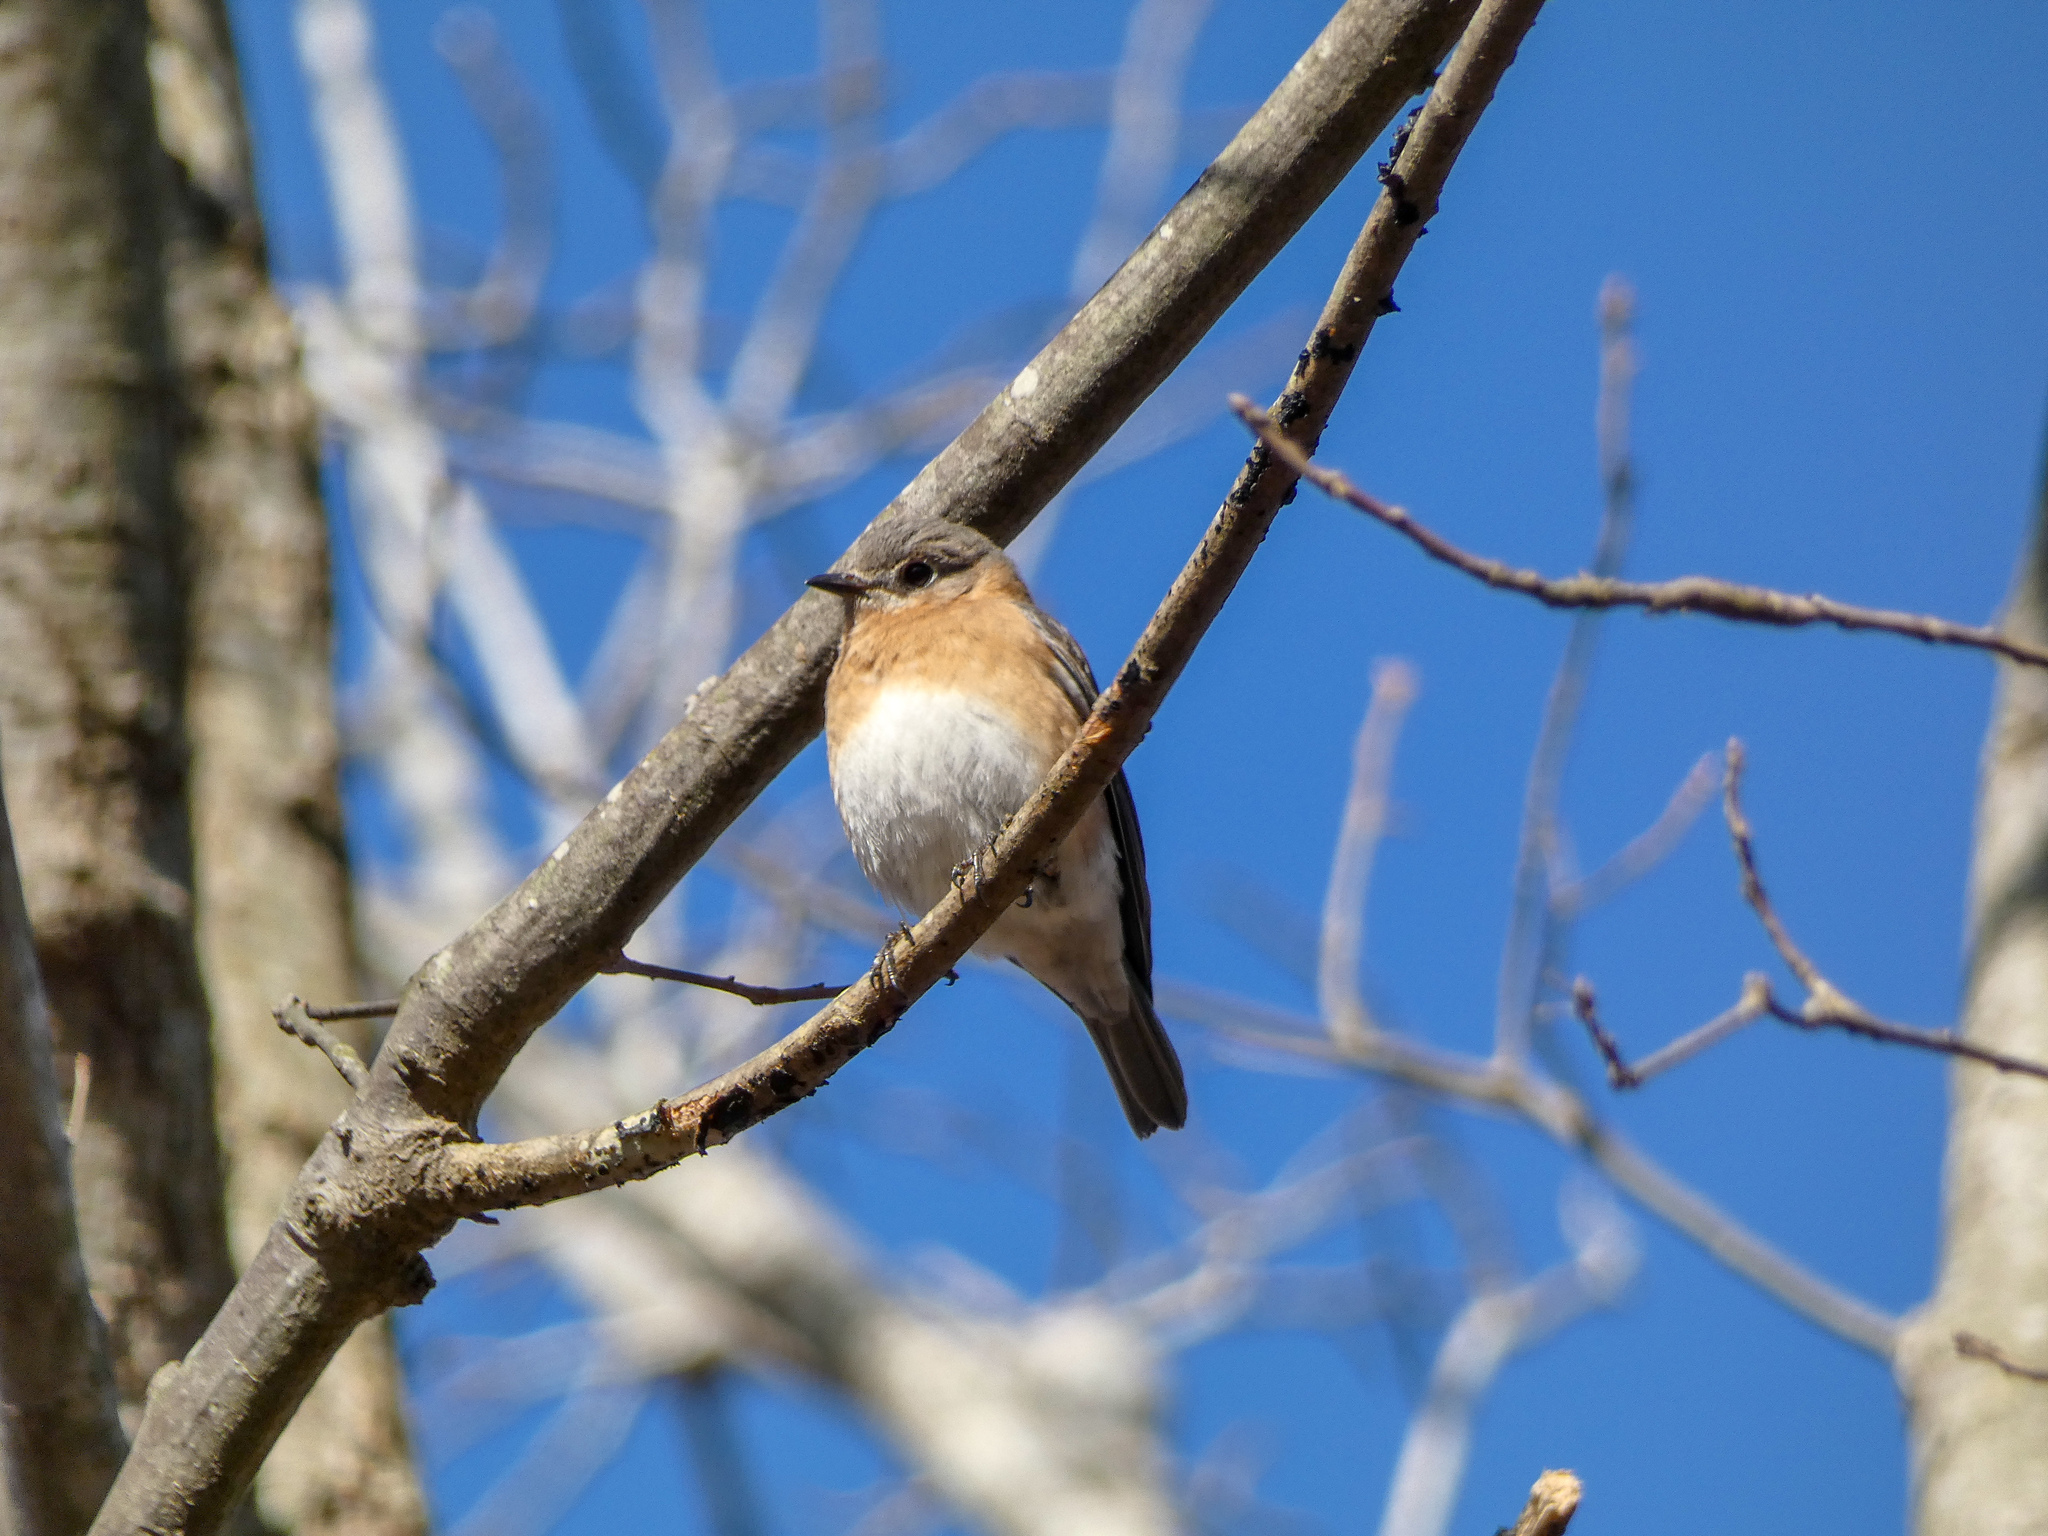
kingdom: Animalia
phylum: Chordata
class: Aves
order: Passeriformes
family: Turdidae
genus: Sialia
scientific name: Sialia sialis
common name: Eastern bluebird
